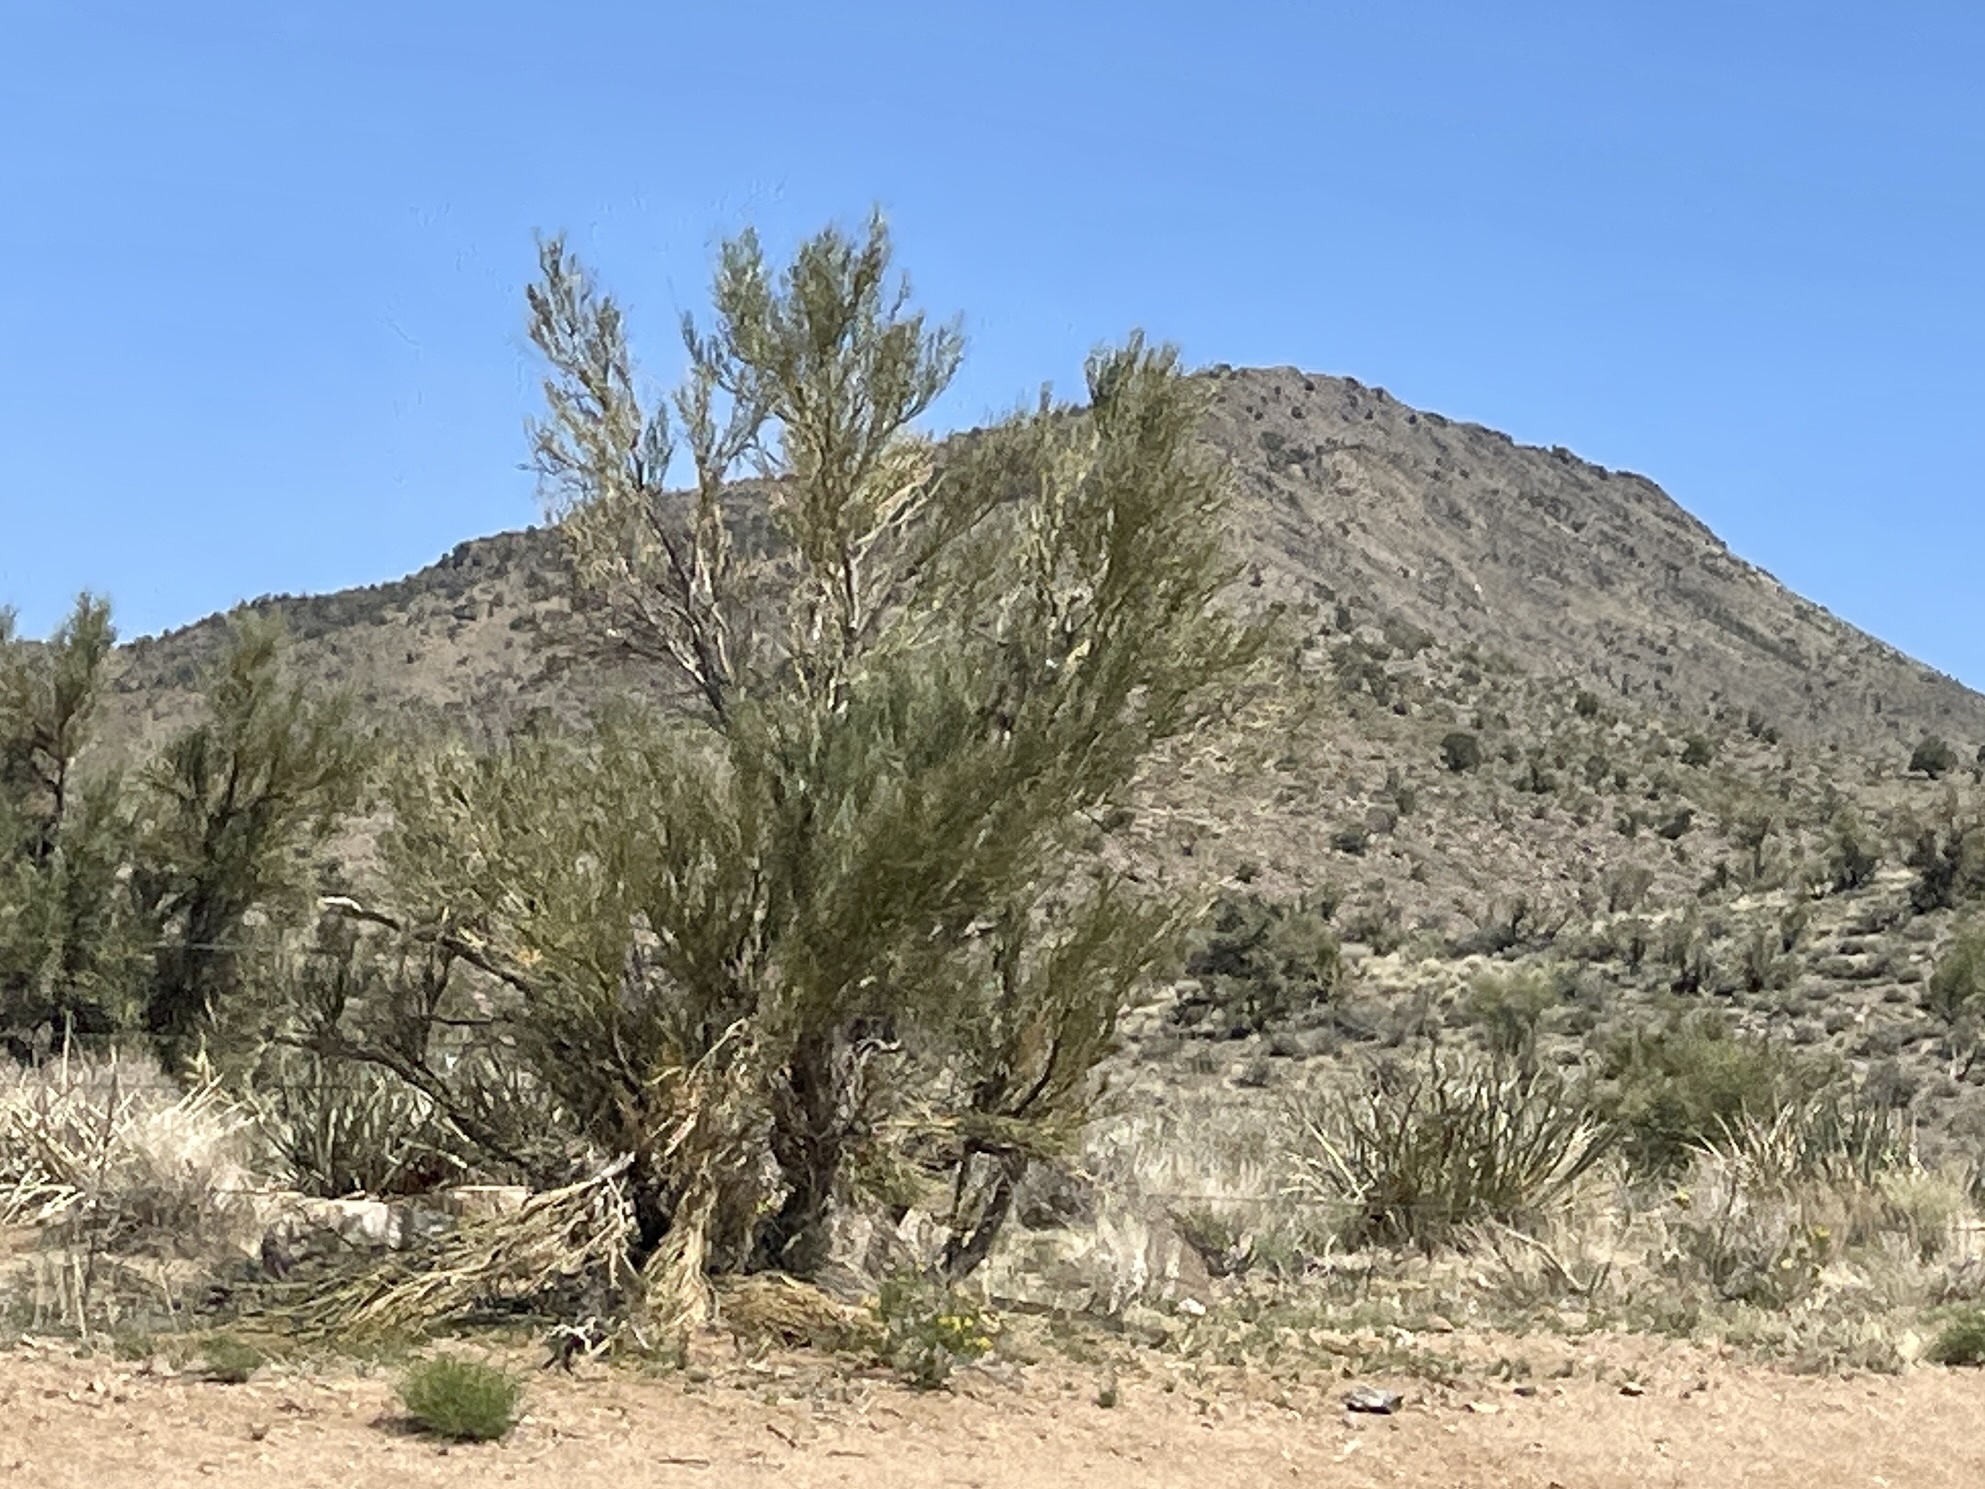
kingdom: Plantae
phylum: Tracheophyta
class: Magnoliopsida
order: Celastrales
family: Celastraceae
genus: Canotia
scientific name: Canotia holacantha
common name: Crucifixion thorns
